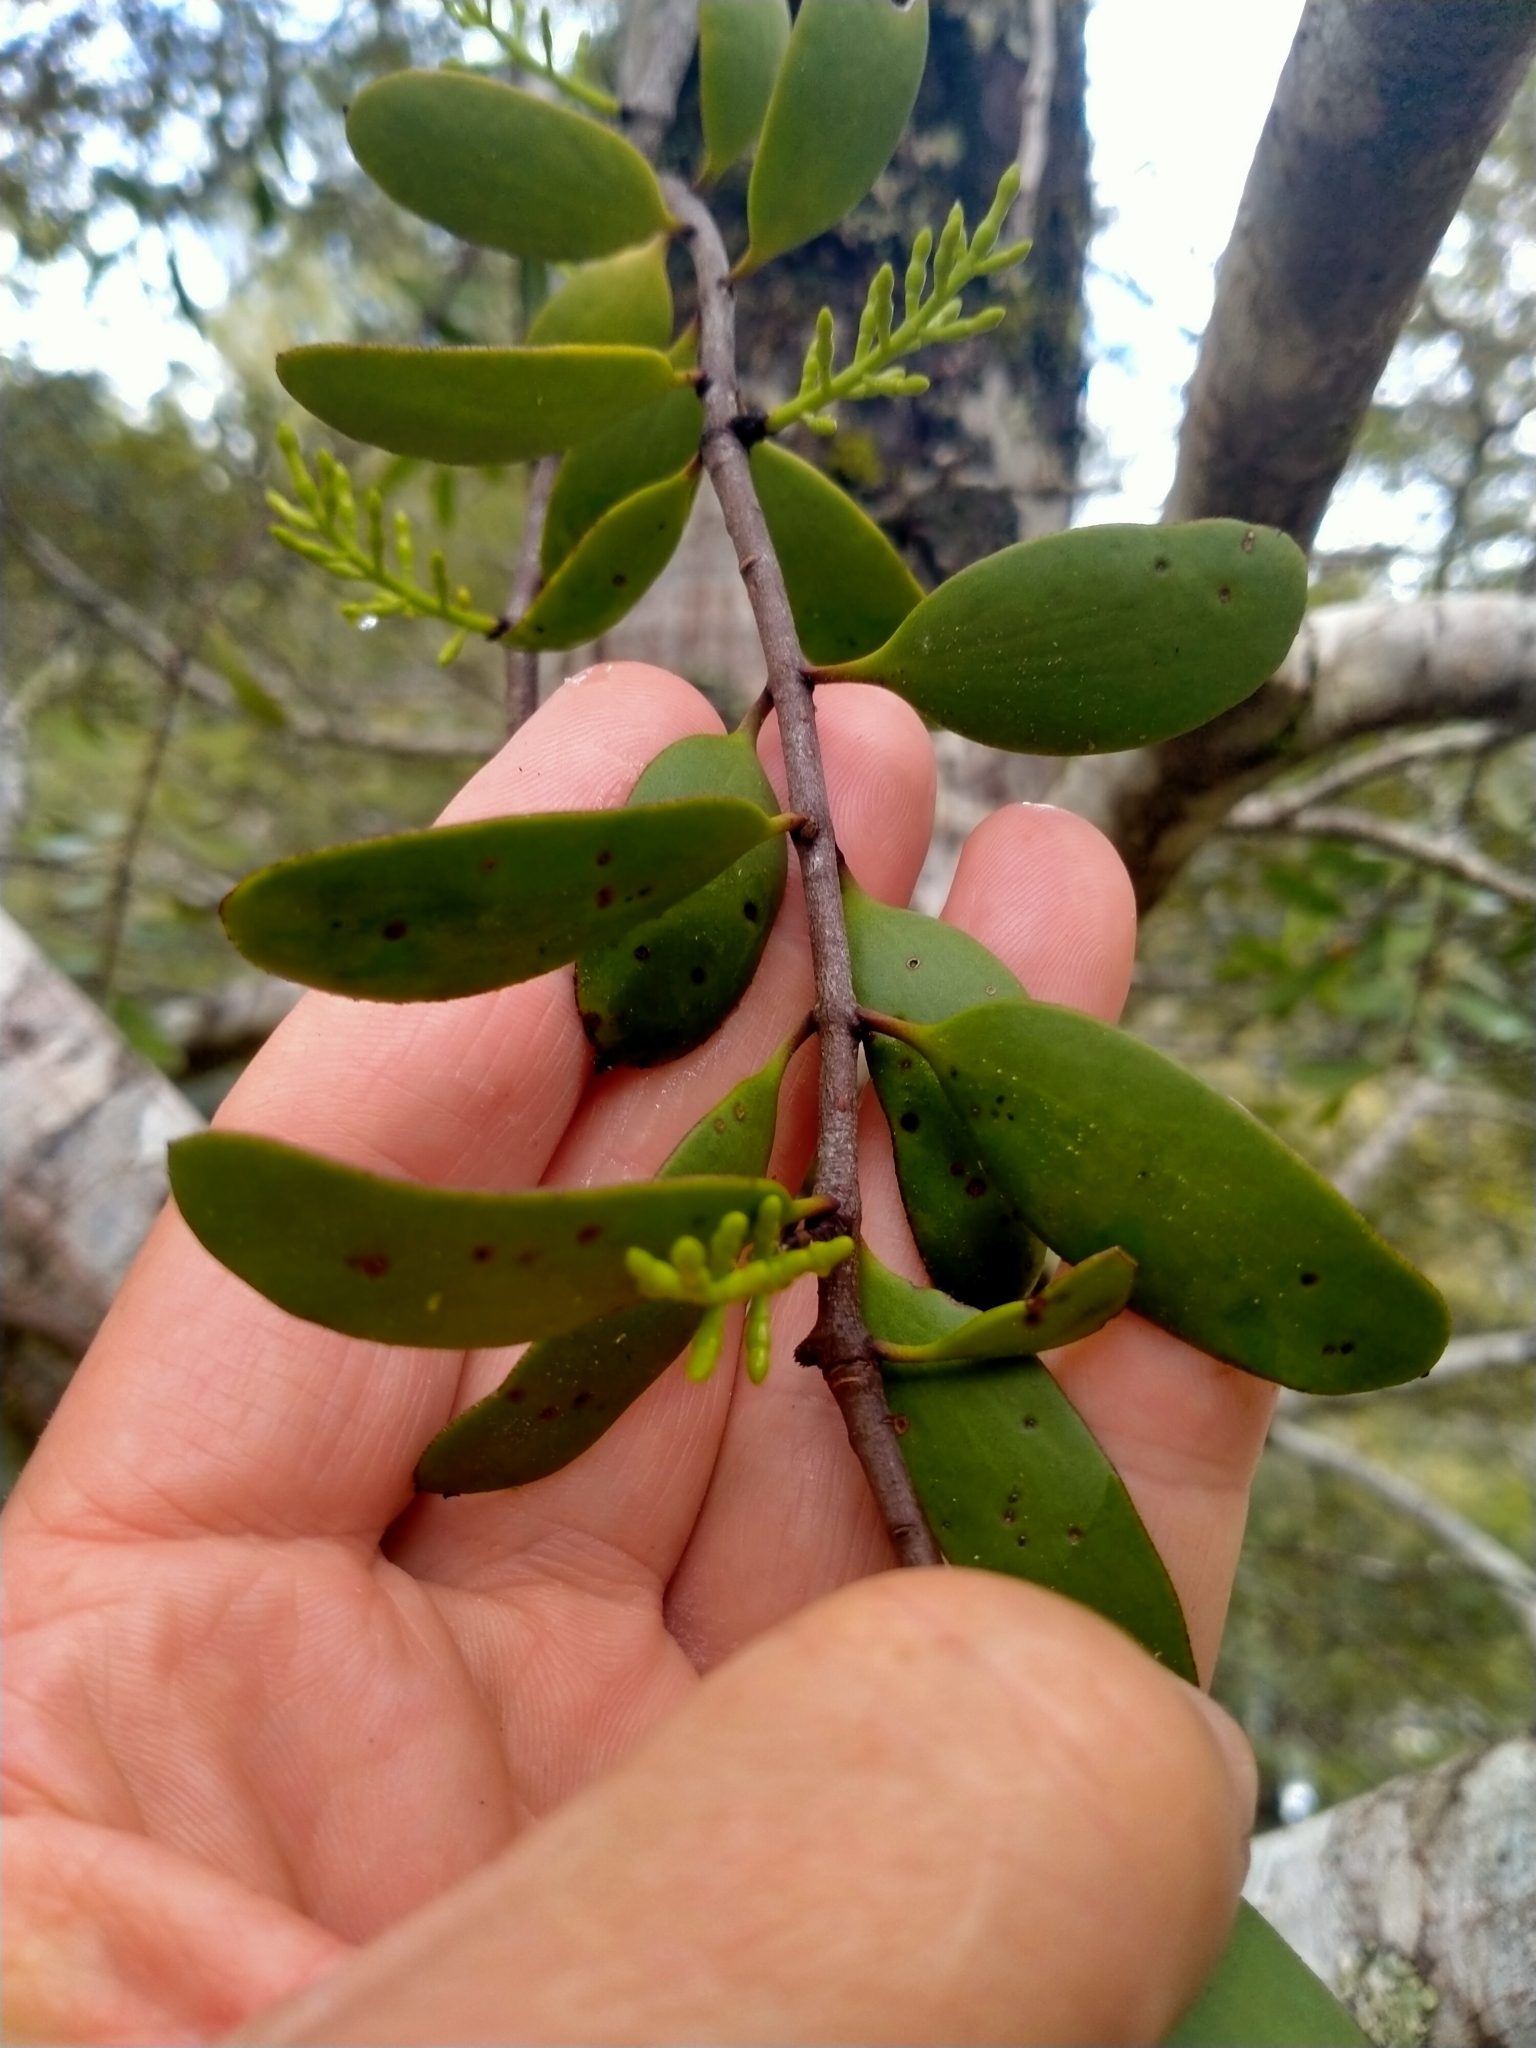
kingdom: Plantae
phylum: Tracheophyta
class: Magnoliopsida
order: Santalales
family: Loranthaceae
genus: Alepis
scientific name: Alepis flavida
